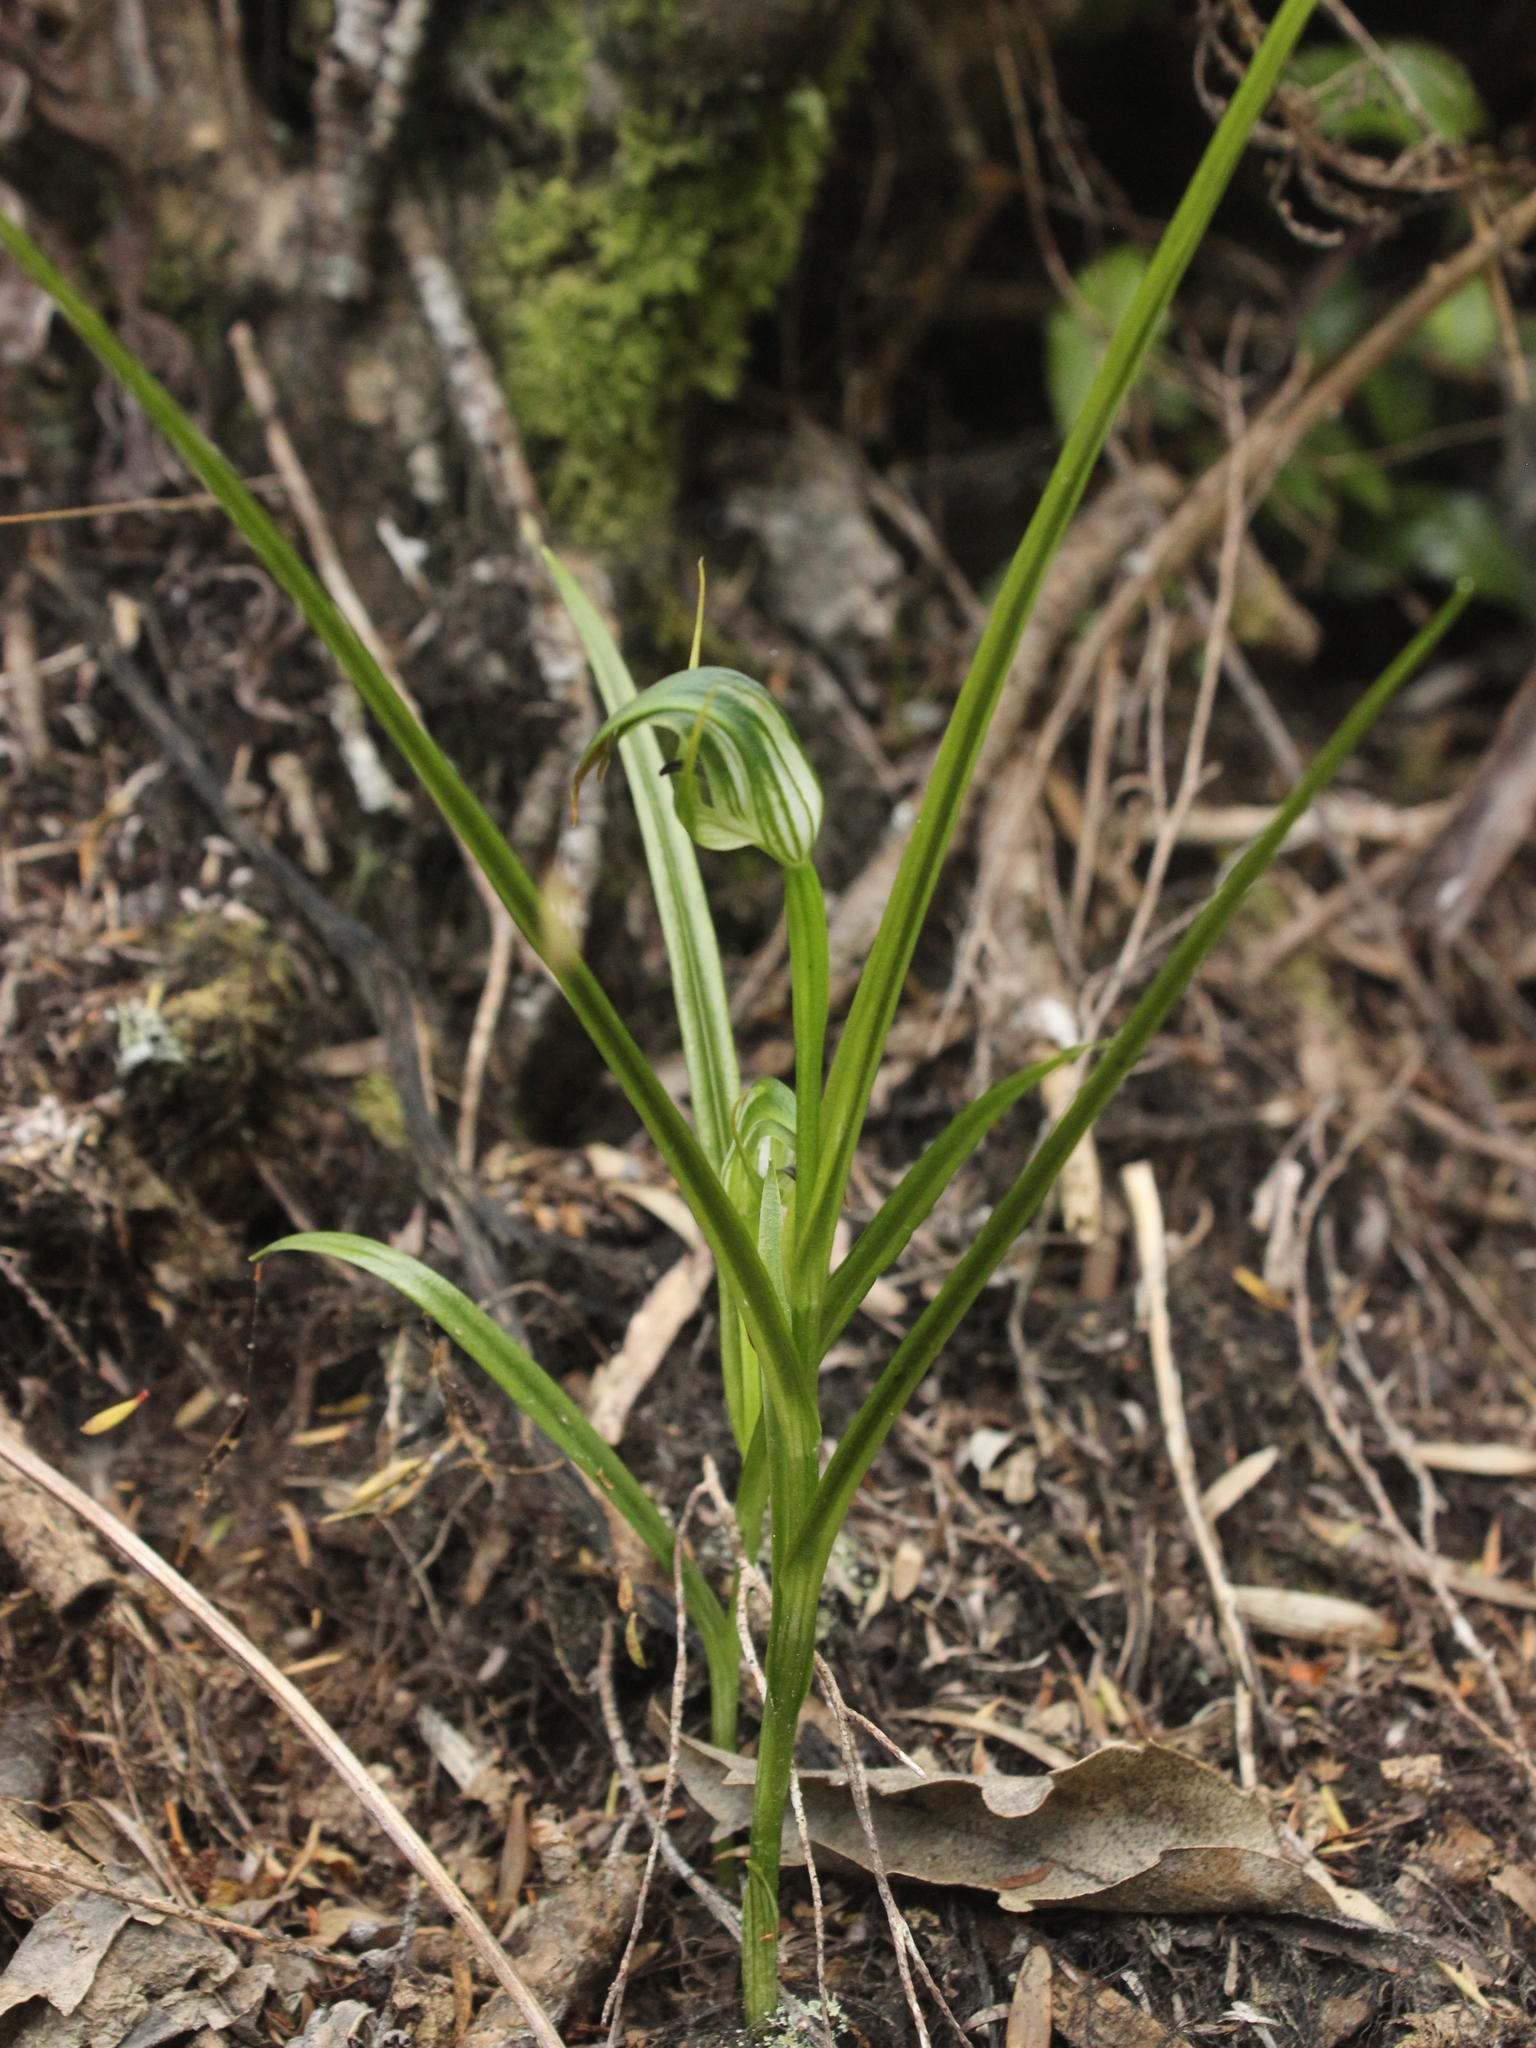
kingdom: Plantae
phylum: Tracheophyta
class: Liliopsida
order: Asparagales
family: Orchidaceae
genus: Pterostylis
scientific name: Pterostylis graminea
